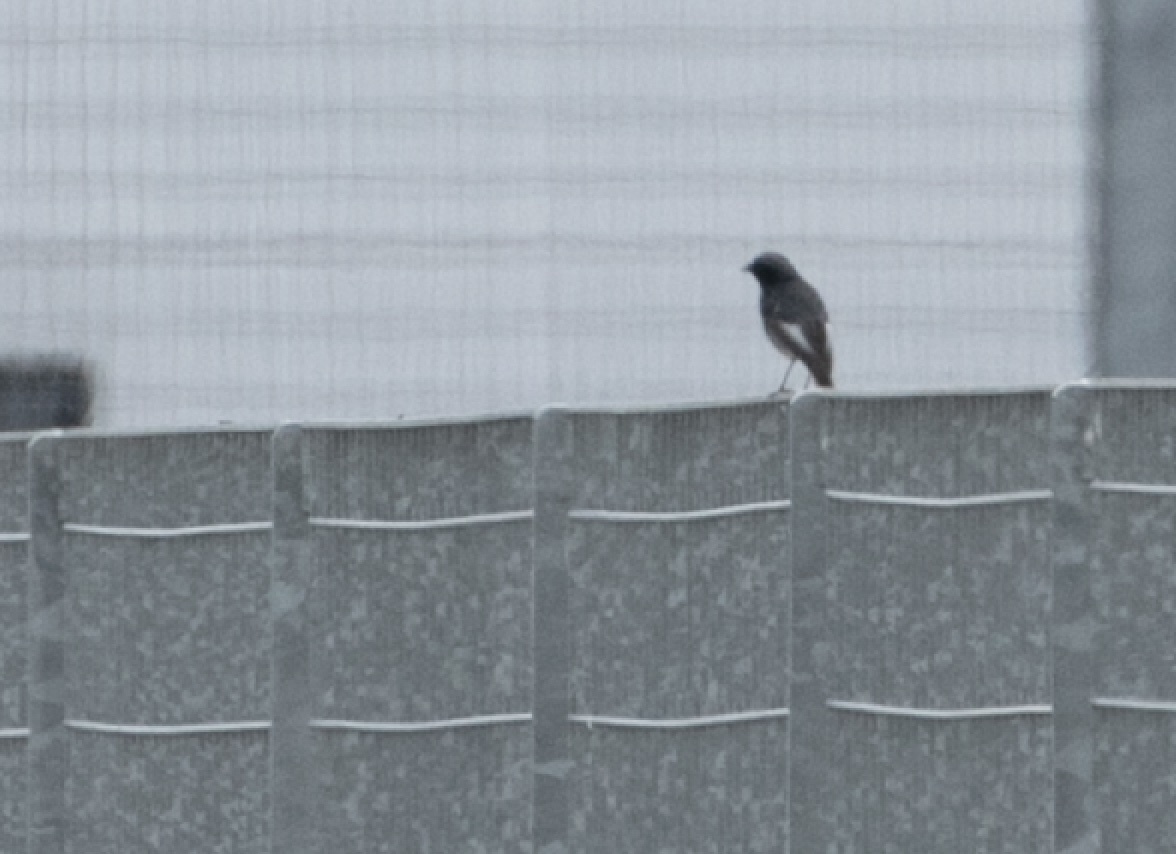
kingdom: Animalia
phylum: Chordata
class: Aves
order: Passeriformes
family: Muscicapidae
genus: Phoenicurus
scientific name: Phoenicurus ochruros
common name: Black redstart
